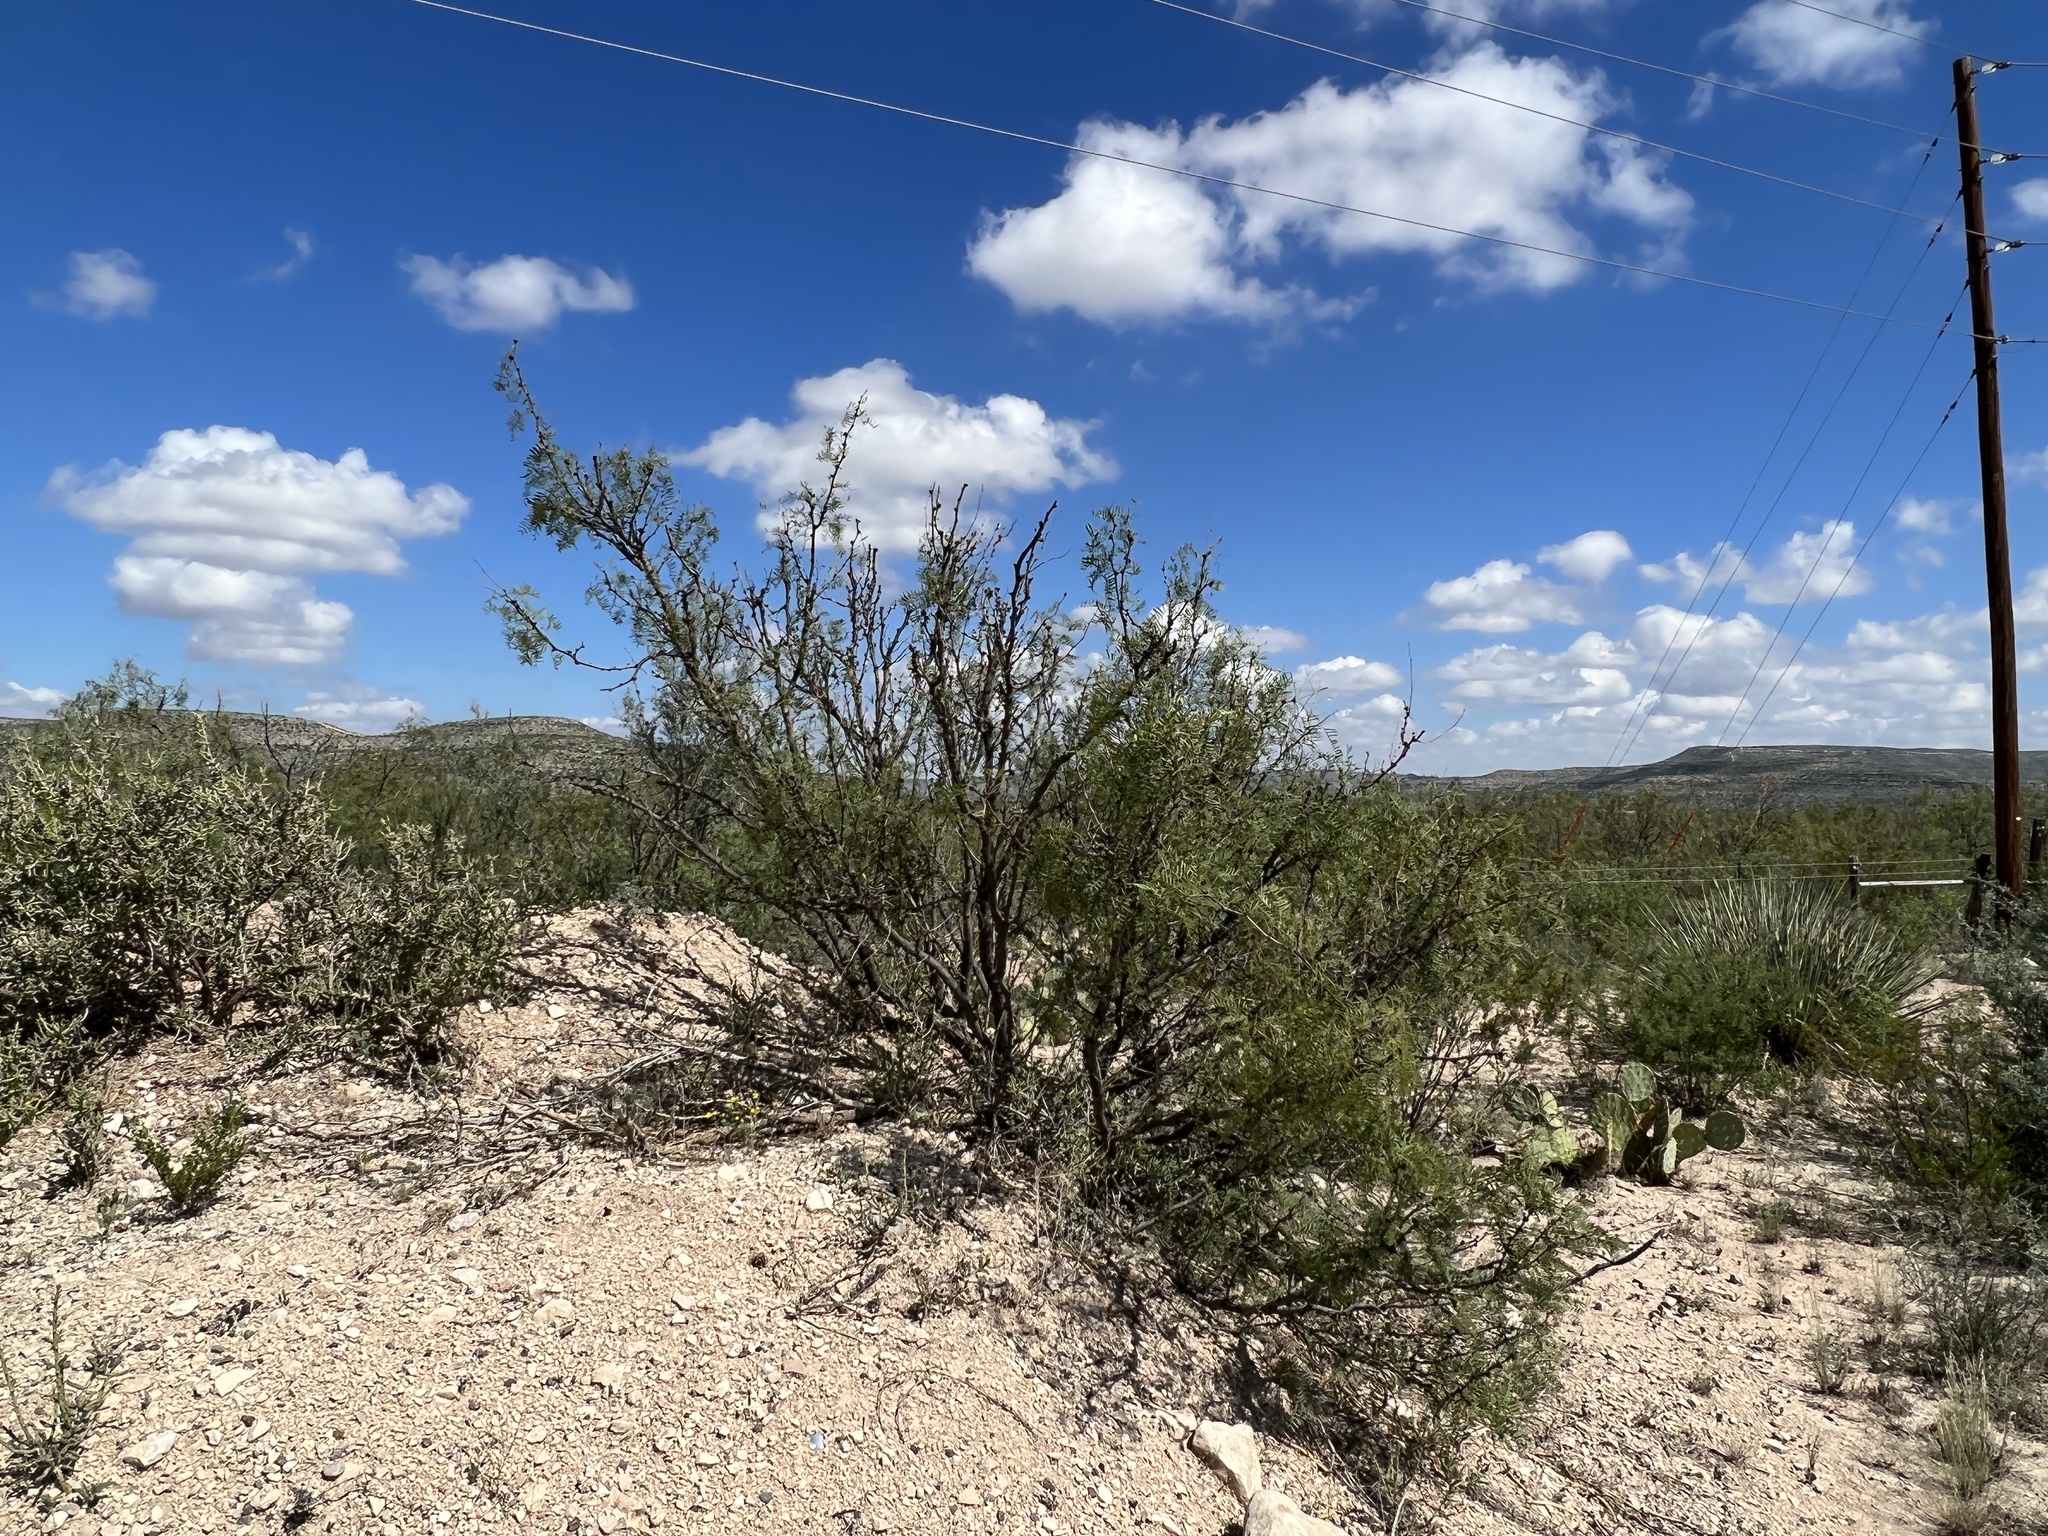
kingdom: Plantae
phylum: Tracheophyta
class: Magnoliopsida
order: Fabales
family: Fabaceae
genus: Prosopis
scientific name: Prosopis glandulosa
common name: Honey mesquite
